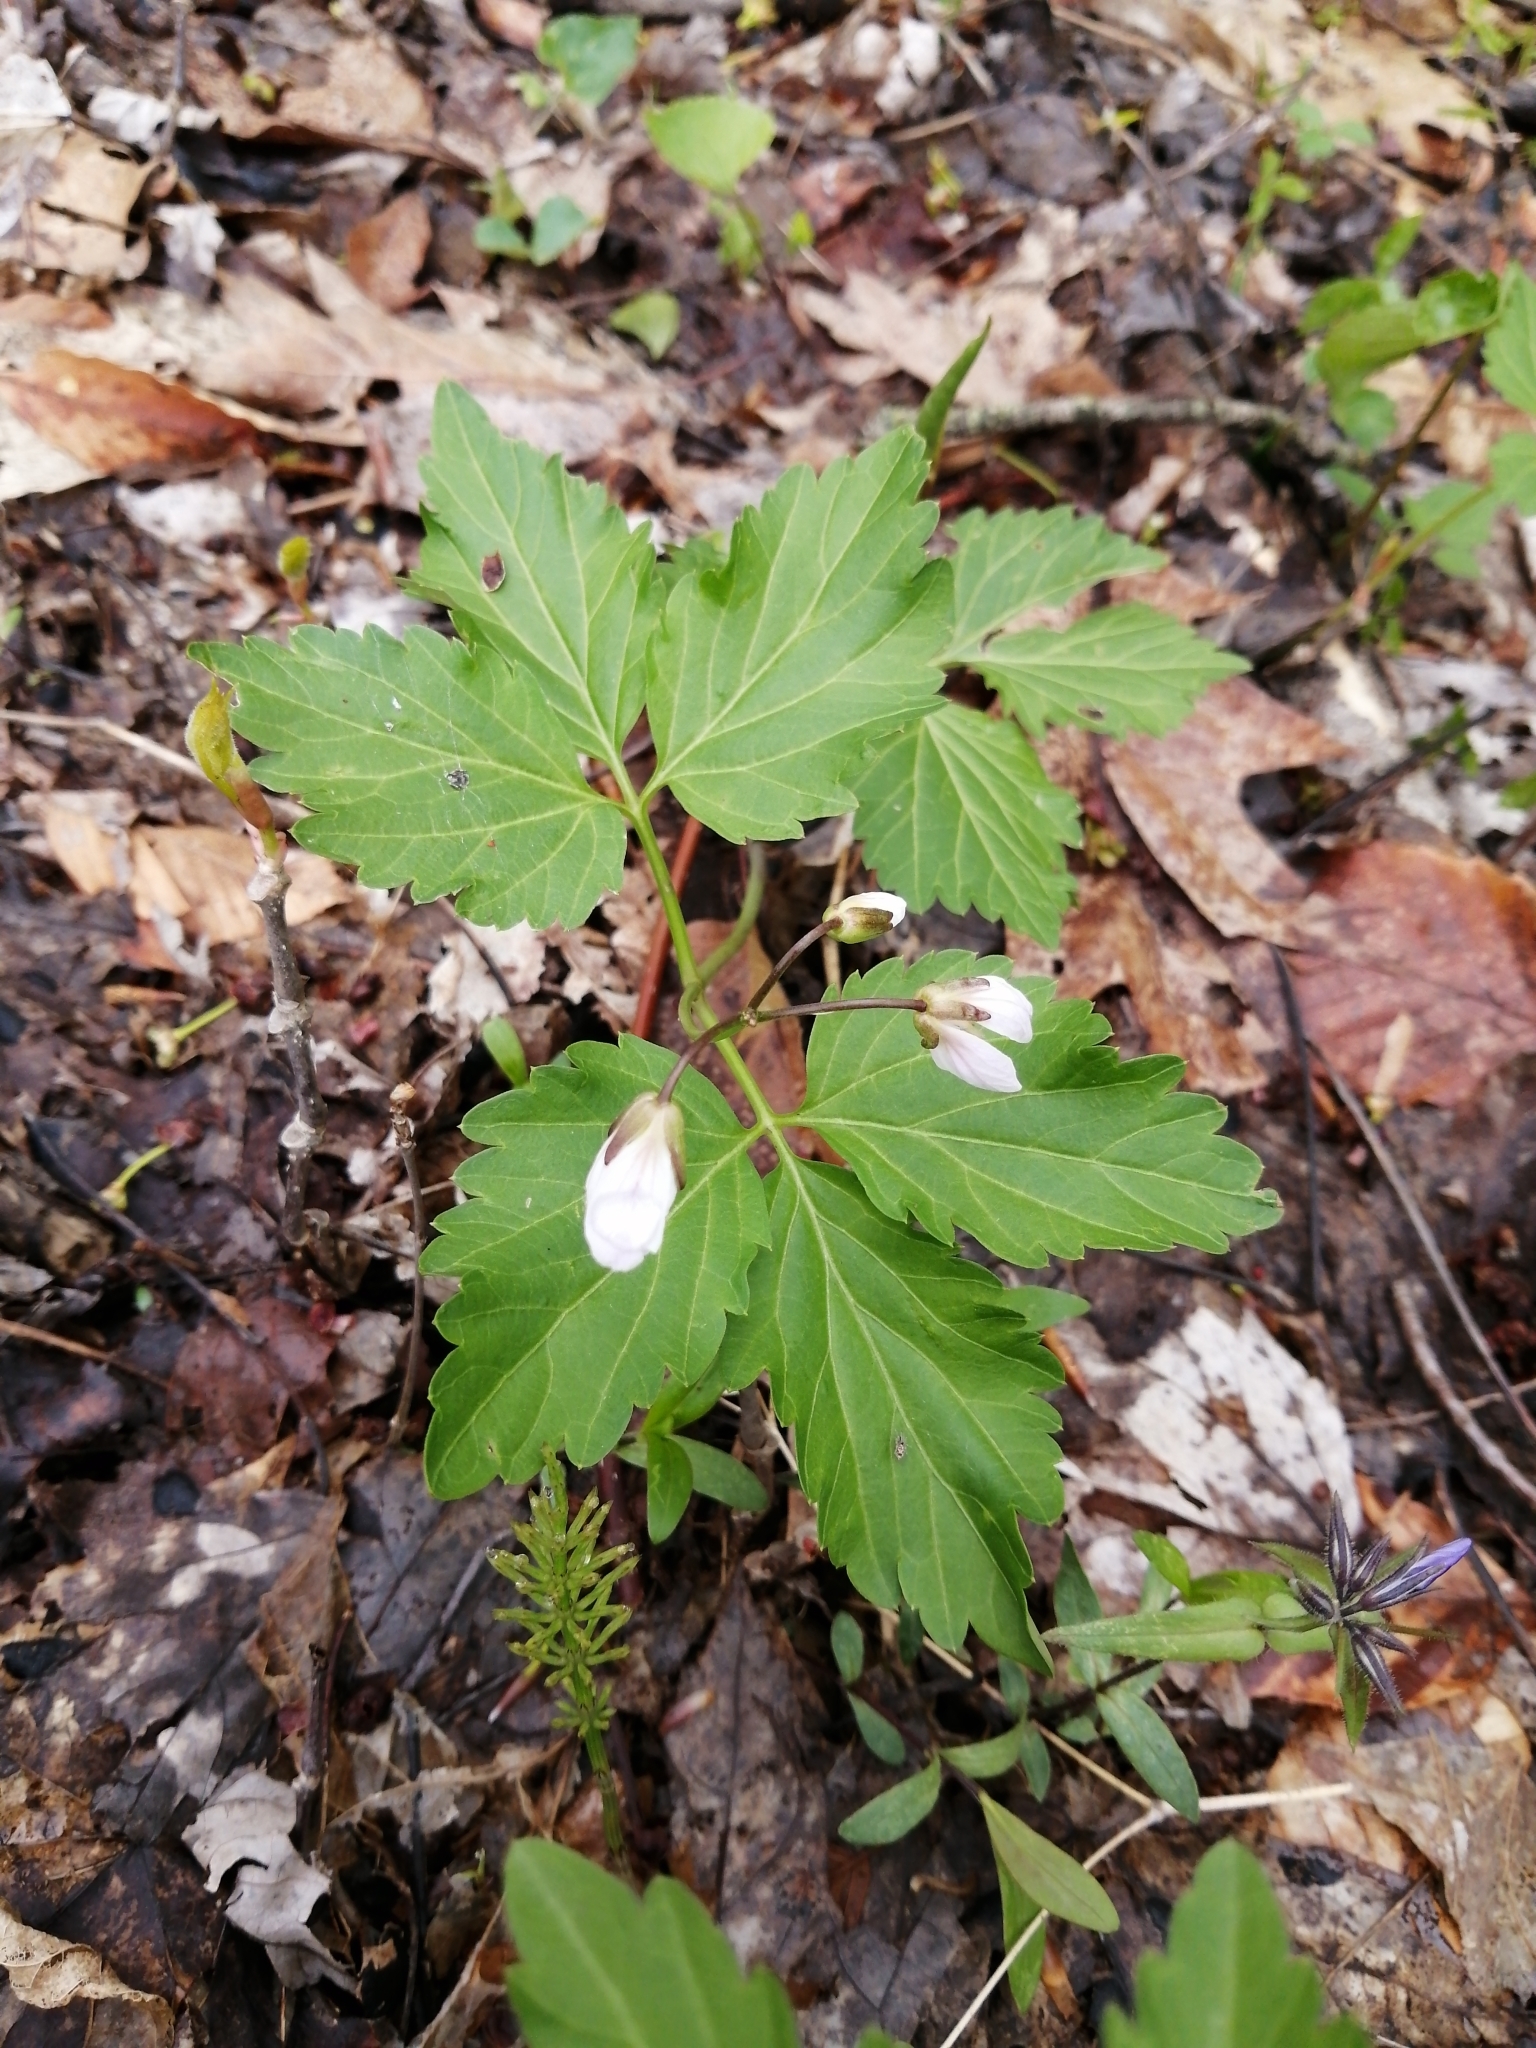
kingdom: Plantae
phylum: Tracheophyta
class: Magnoliopsida
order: Brassicales
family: Brassicaceae
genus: Cardamine
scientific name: Cardamine diphylla
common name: Broad-leaved toothwort
